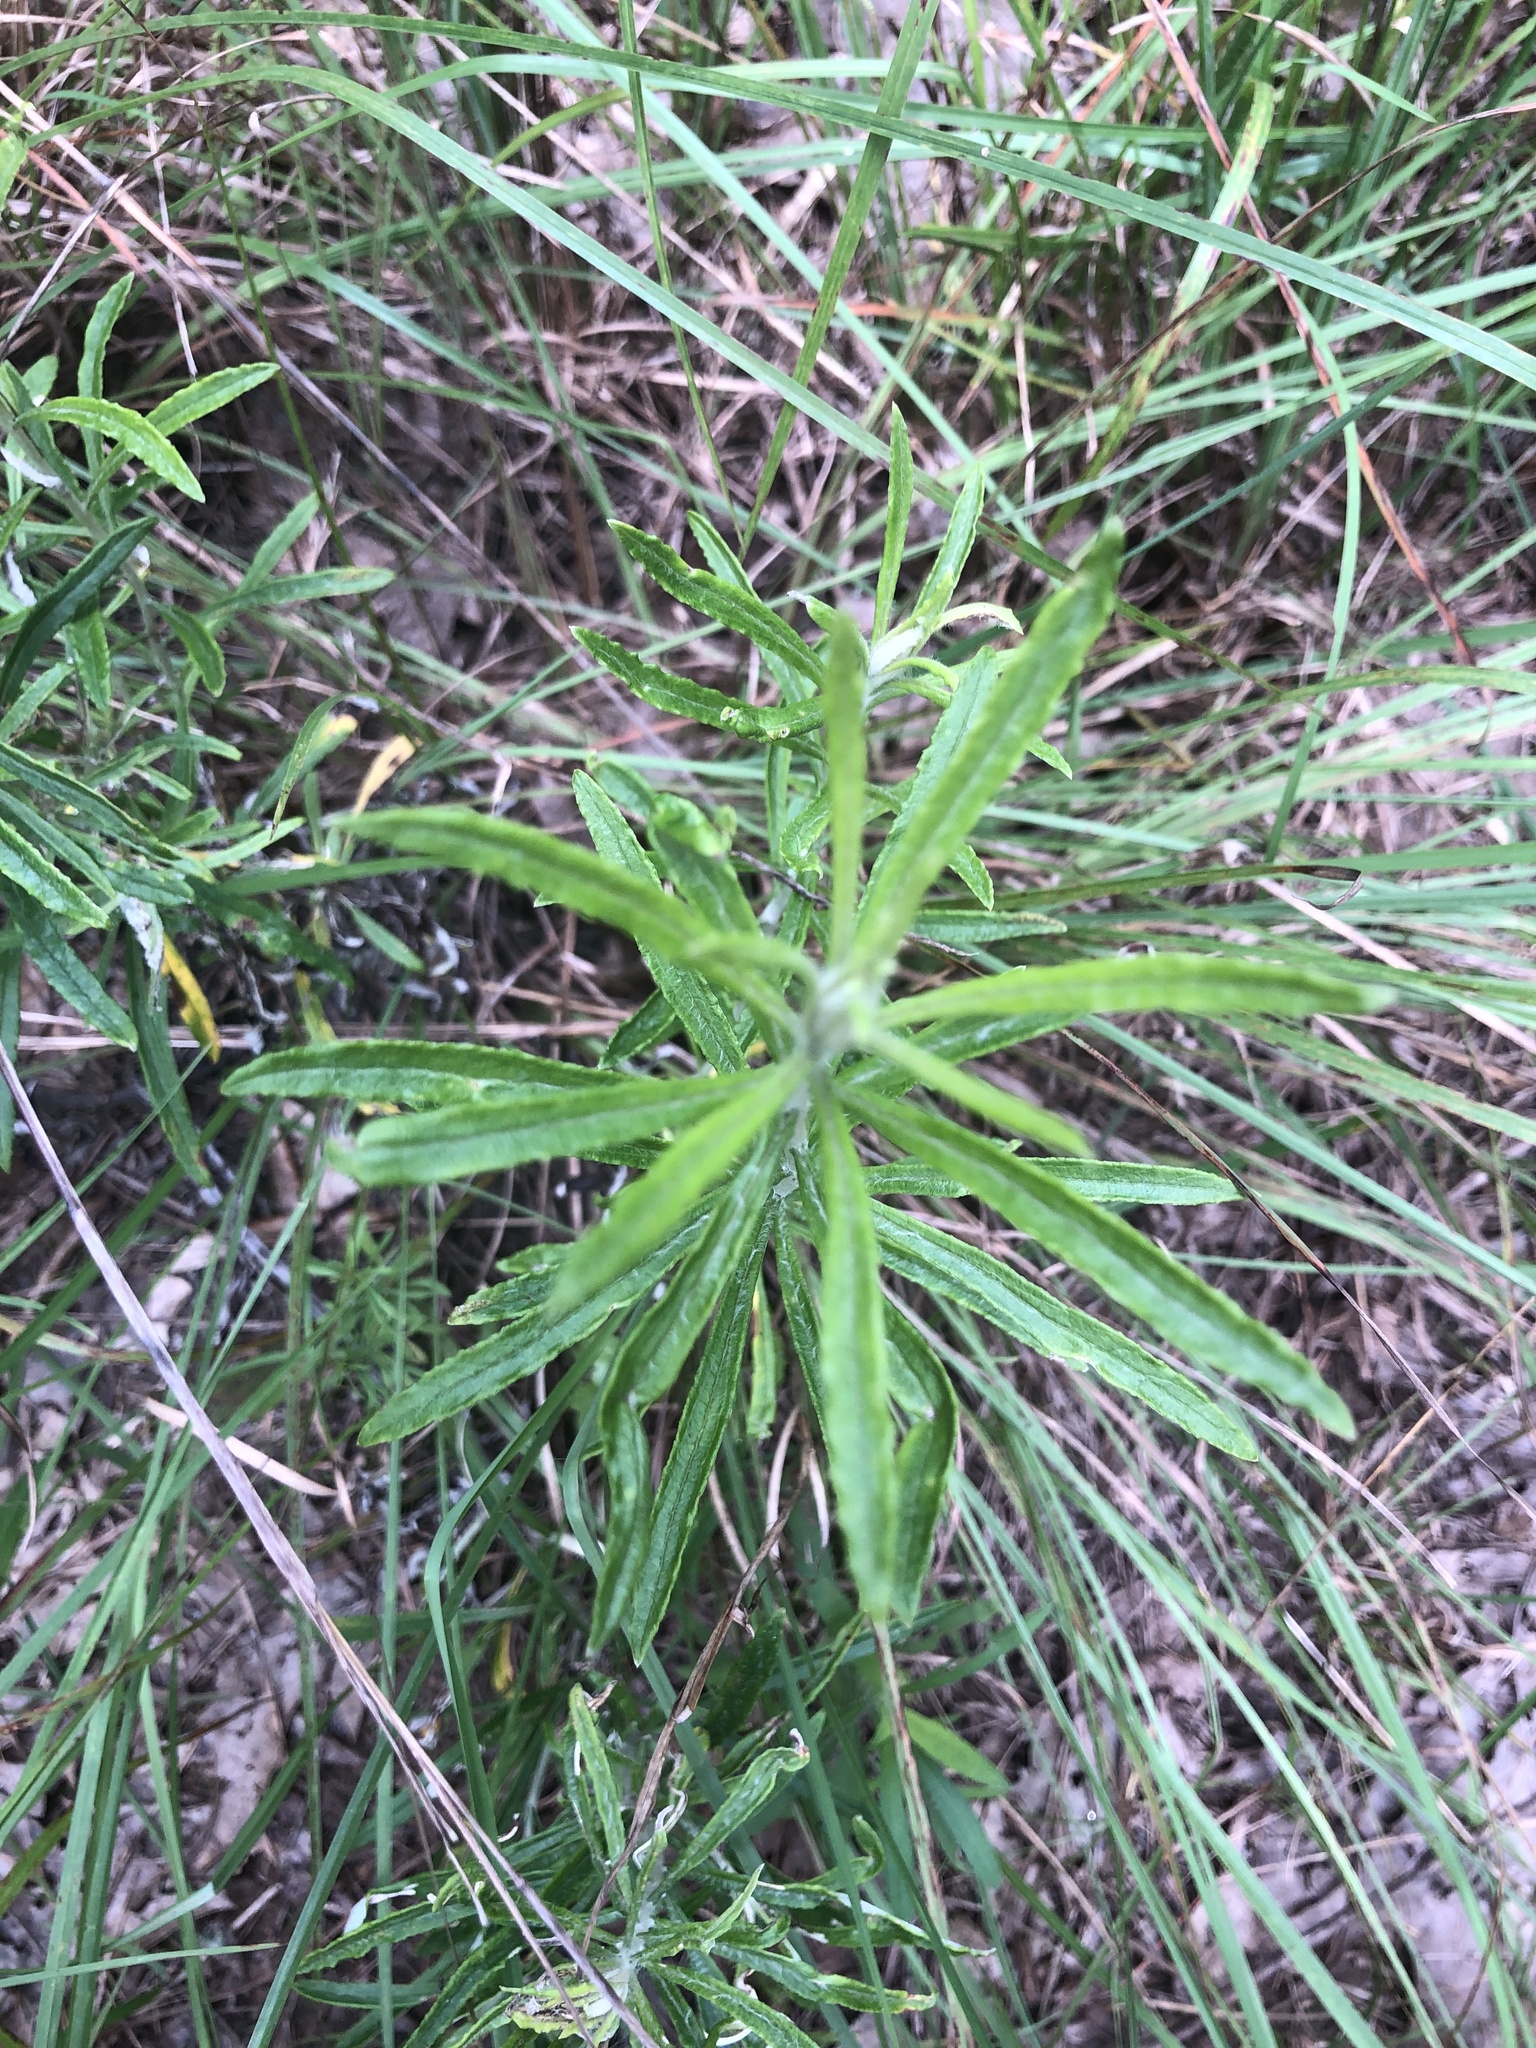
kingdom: Plantae
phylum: Tracheophyta
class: Magnoliopsida
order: Asterales
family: Asteraceae
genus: Pseudognaphalium
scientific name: Pseudognaphalium obtusifolium
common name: Eastern rabbit-tobacco
